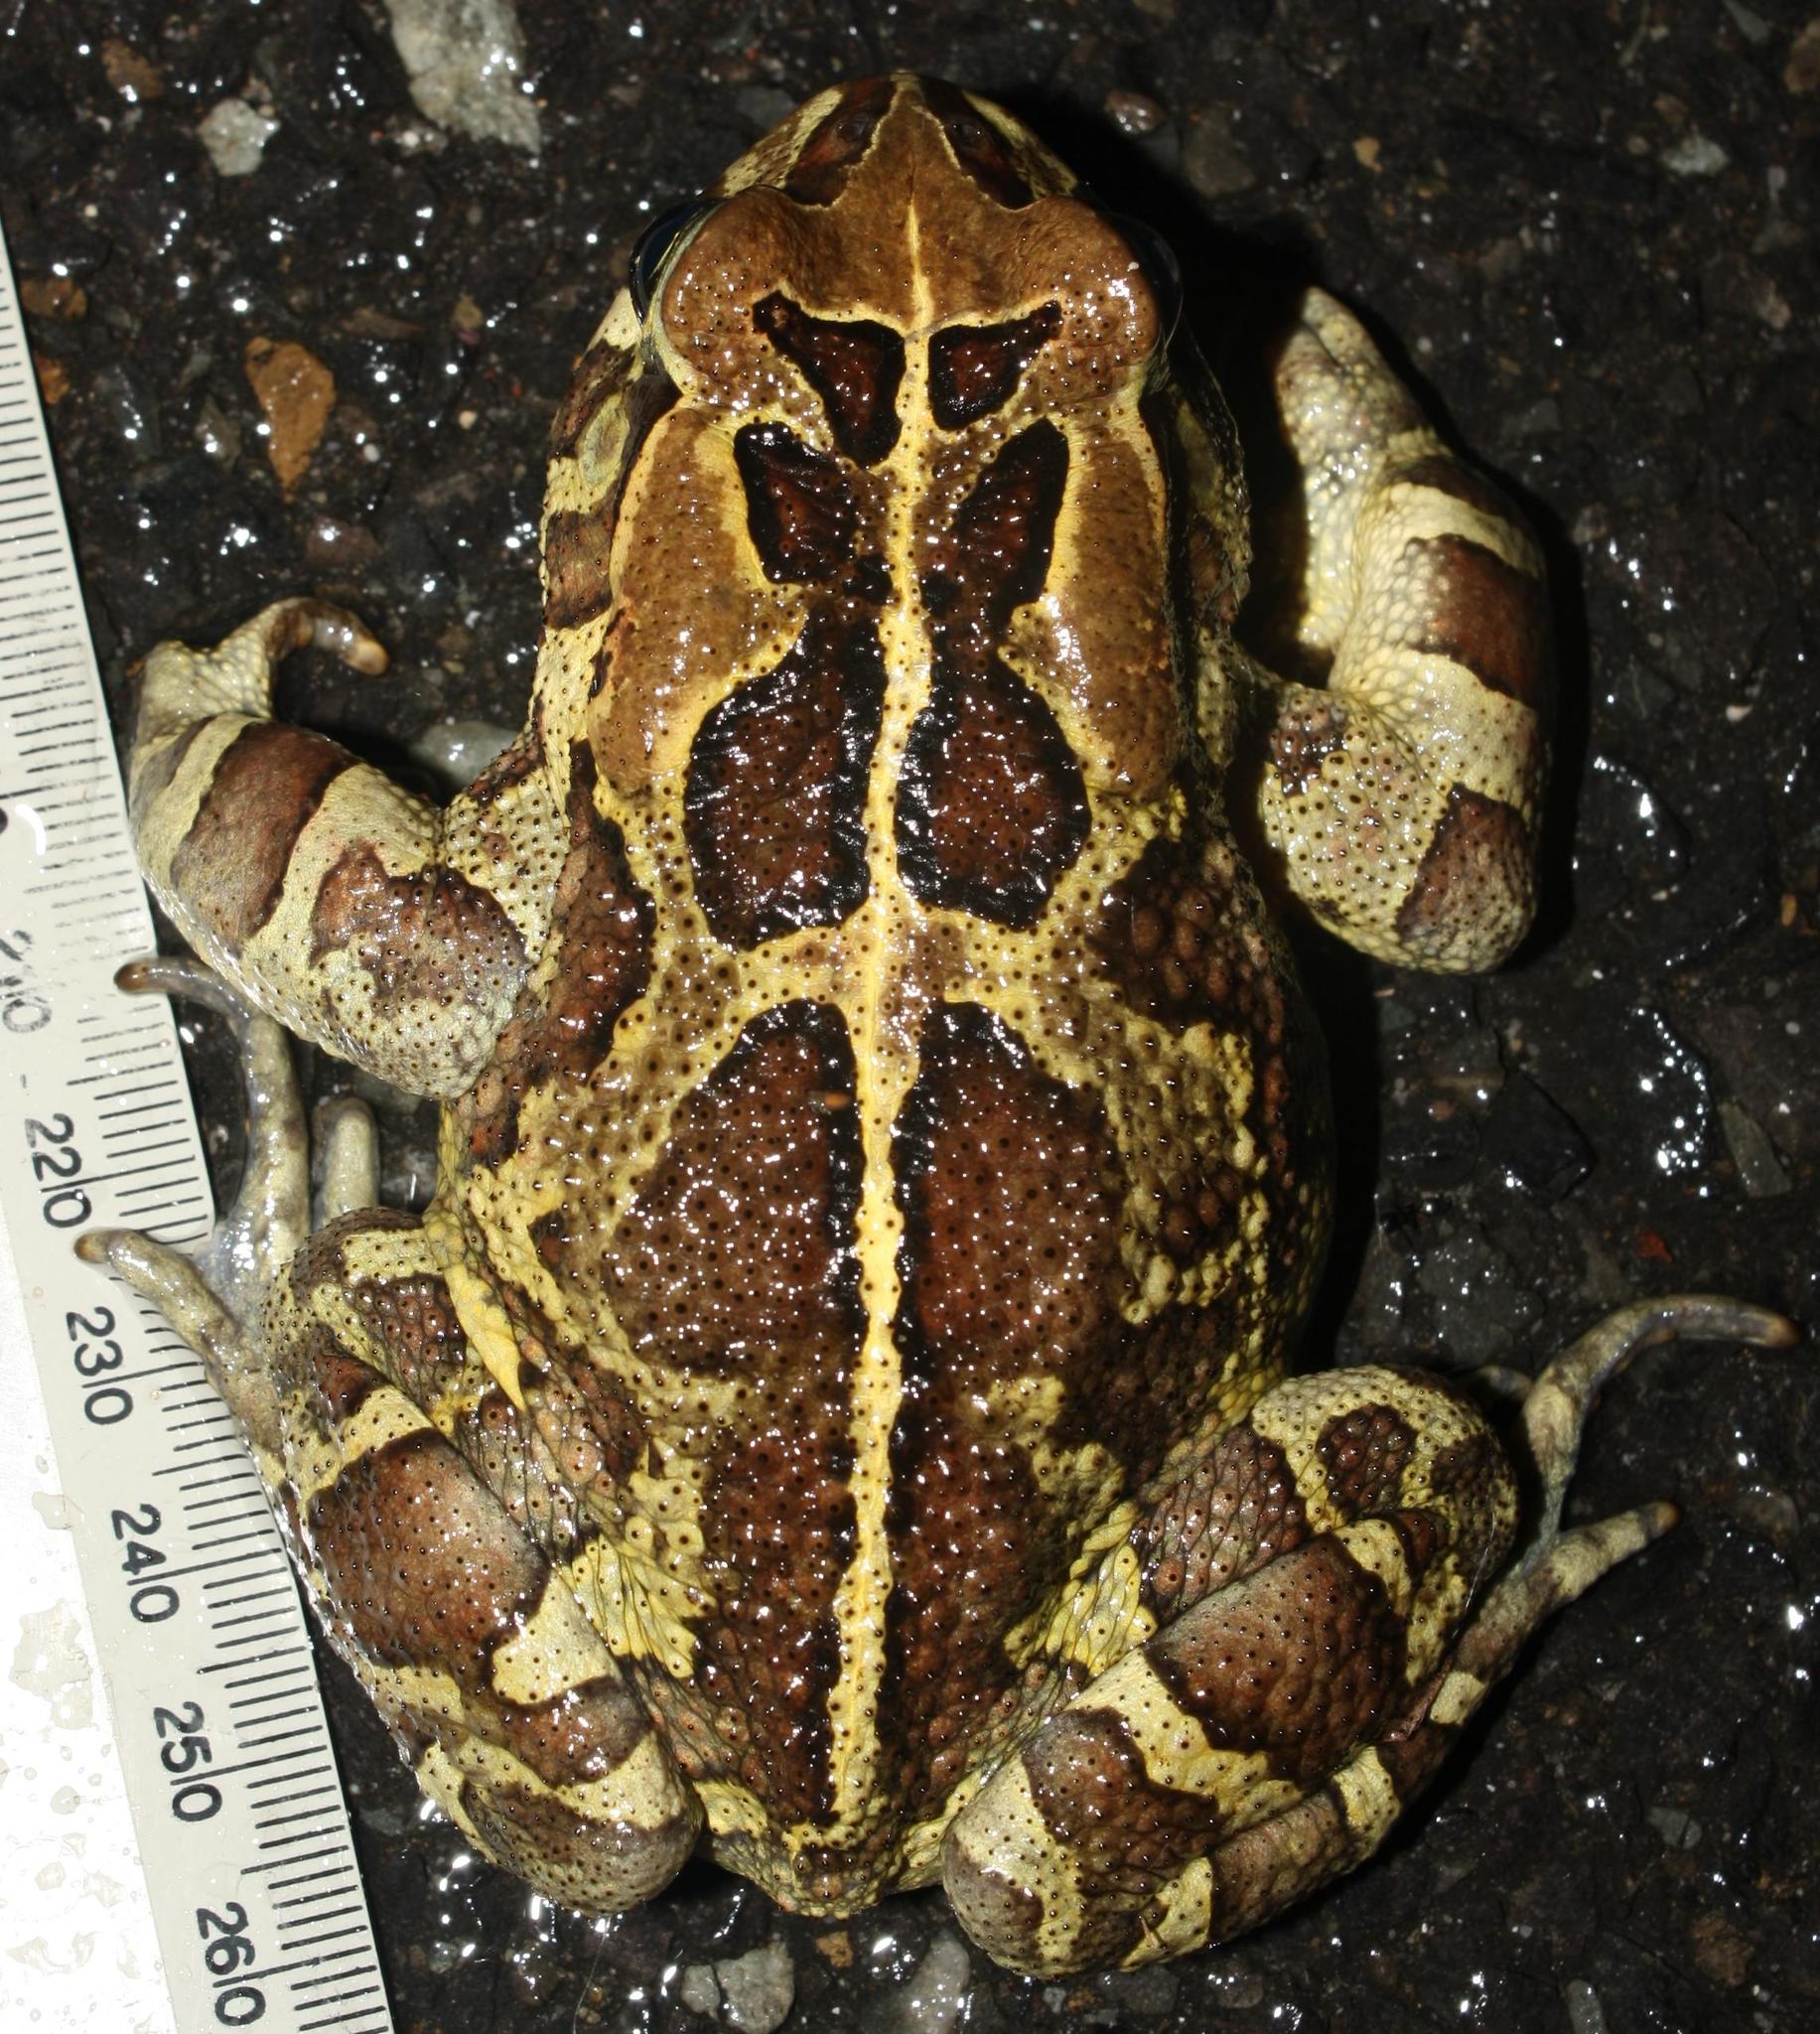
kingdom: Animalia
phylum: Chordata
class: Amphibia
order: Anura
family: Bufonidae
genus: Sclerophrys
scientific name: Sclerophrys pantherina
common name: Panther toad
